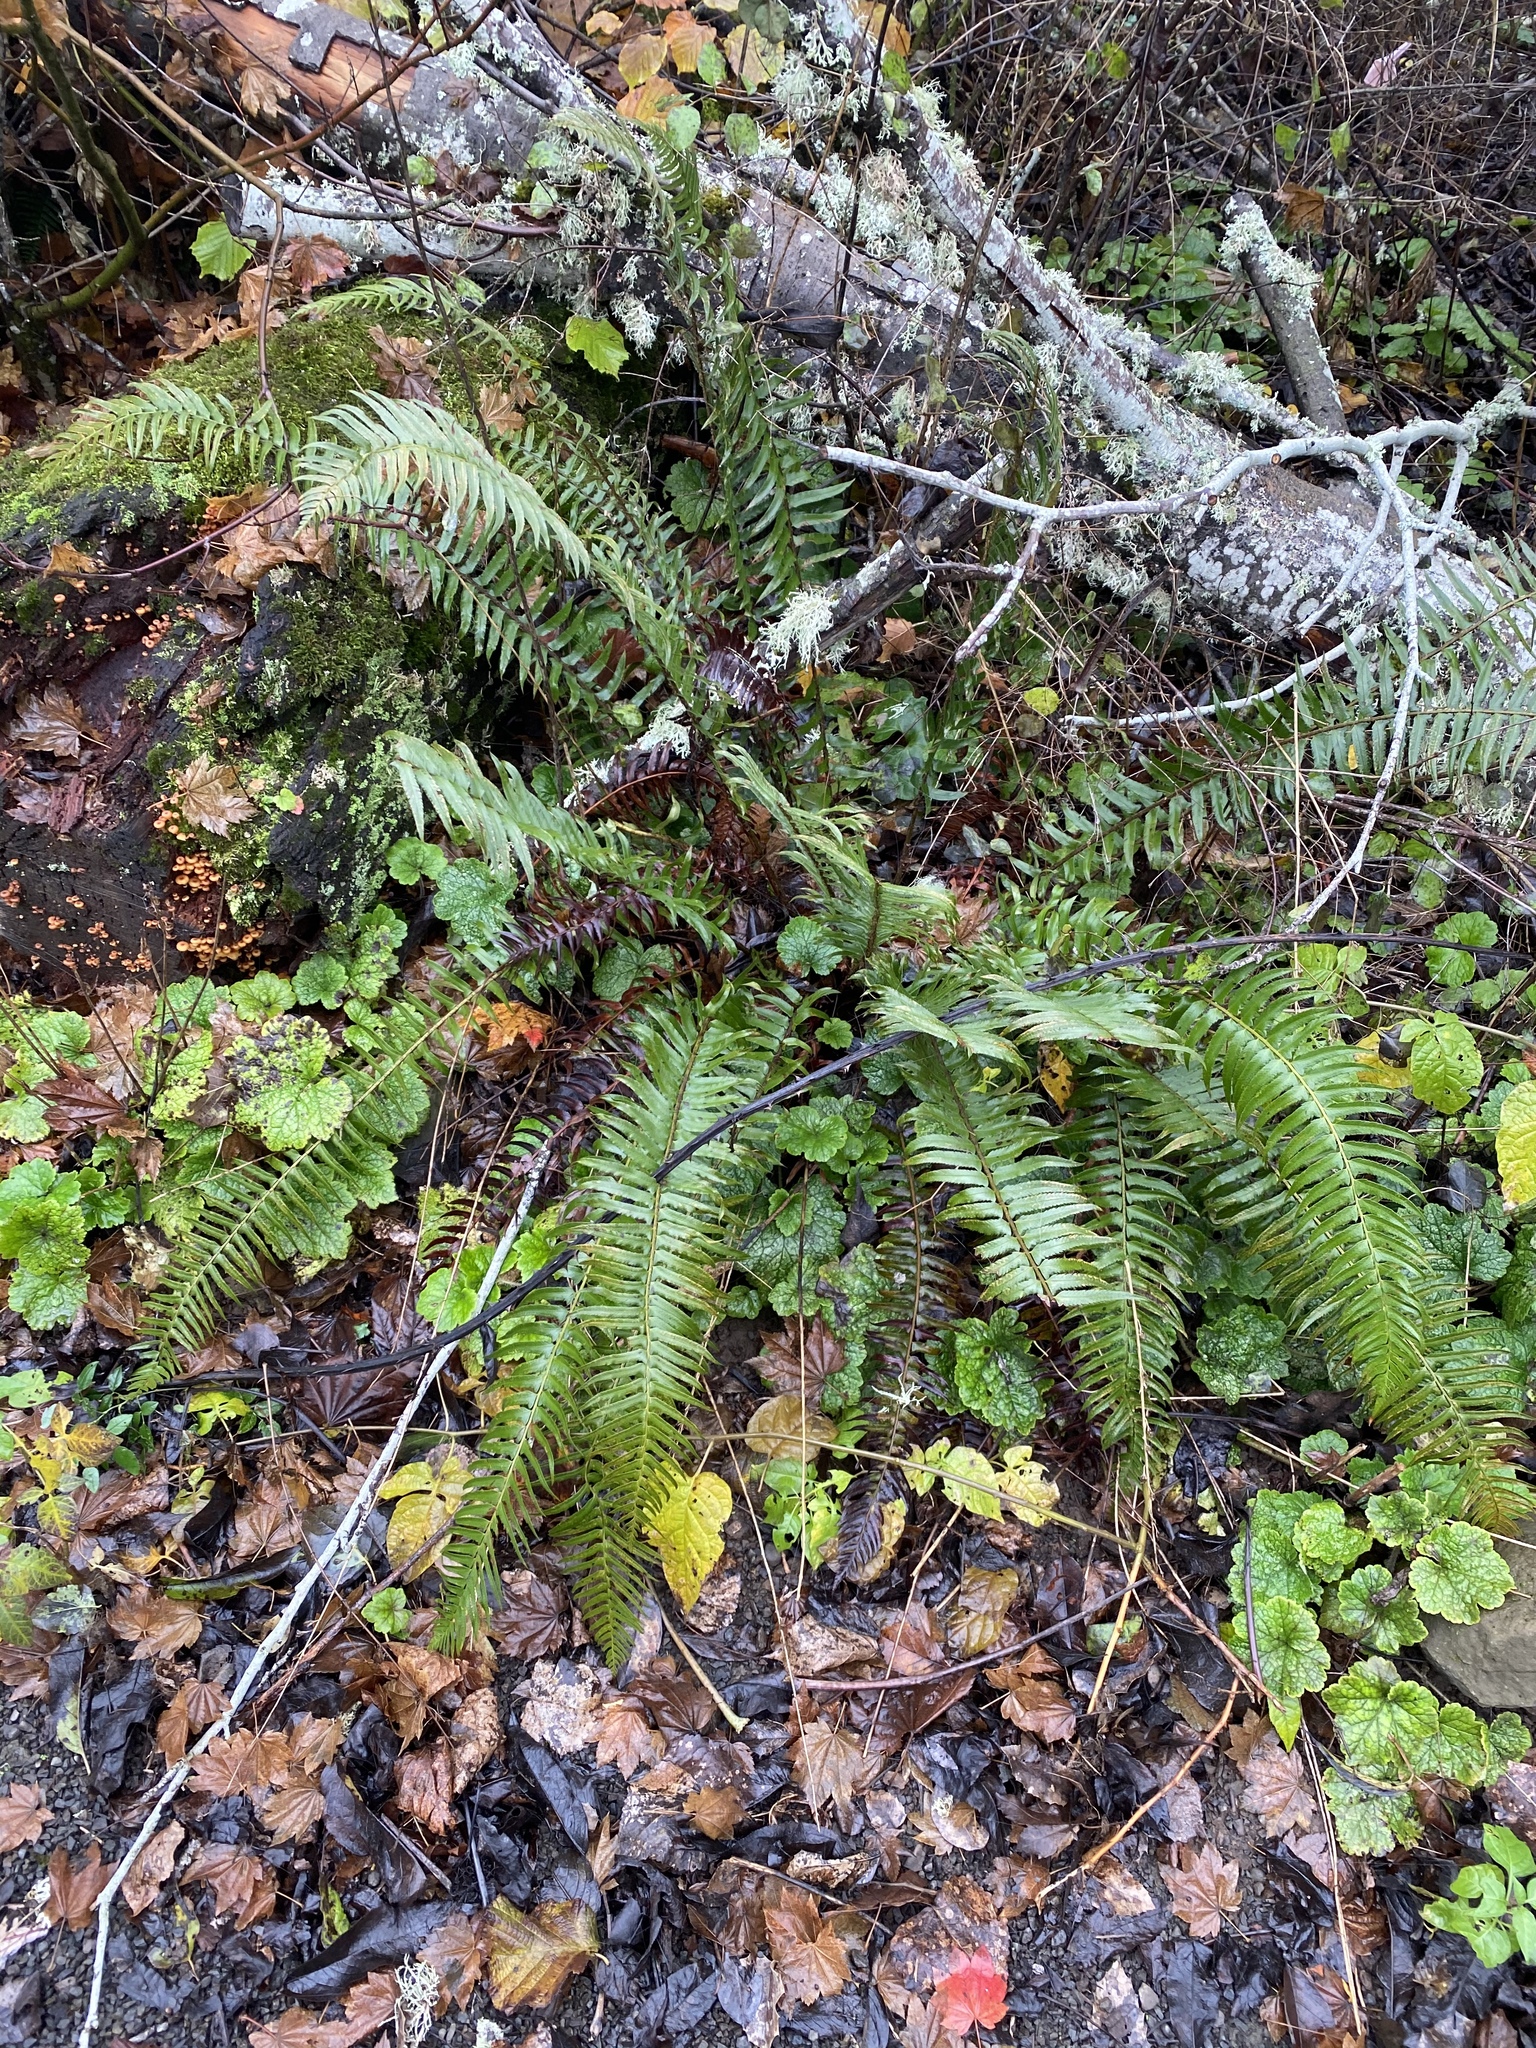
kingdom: Plantae
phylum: Tracheophyta
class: Polypodiopsida
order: Polypodiales
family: Dryopteridaceae
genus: Polystichum
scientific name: Polystichum munitum
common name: Western sword-fern
